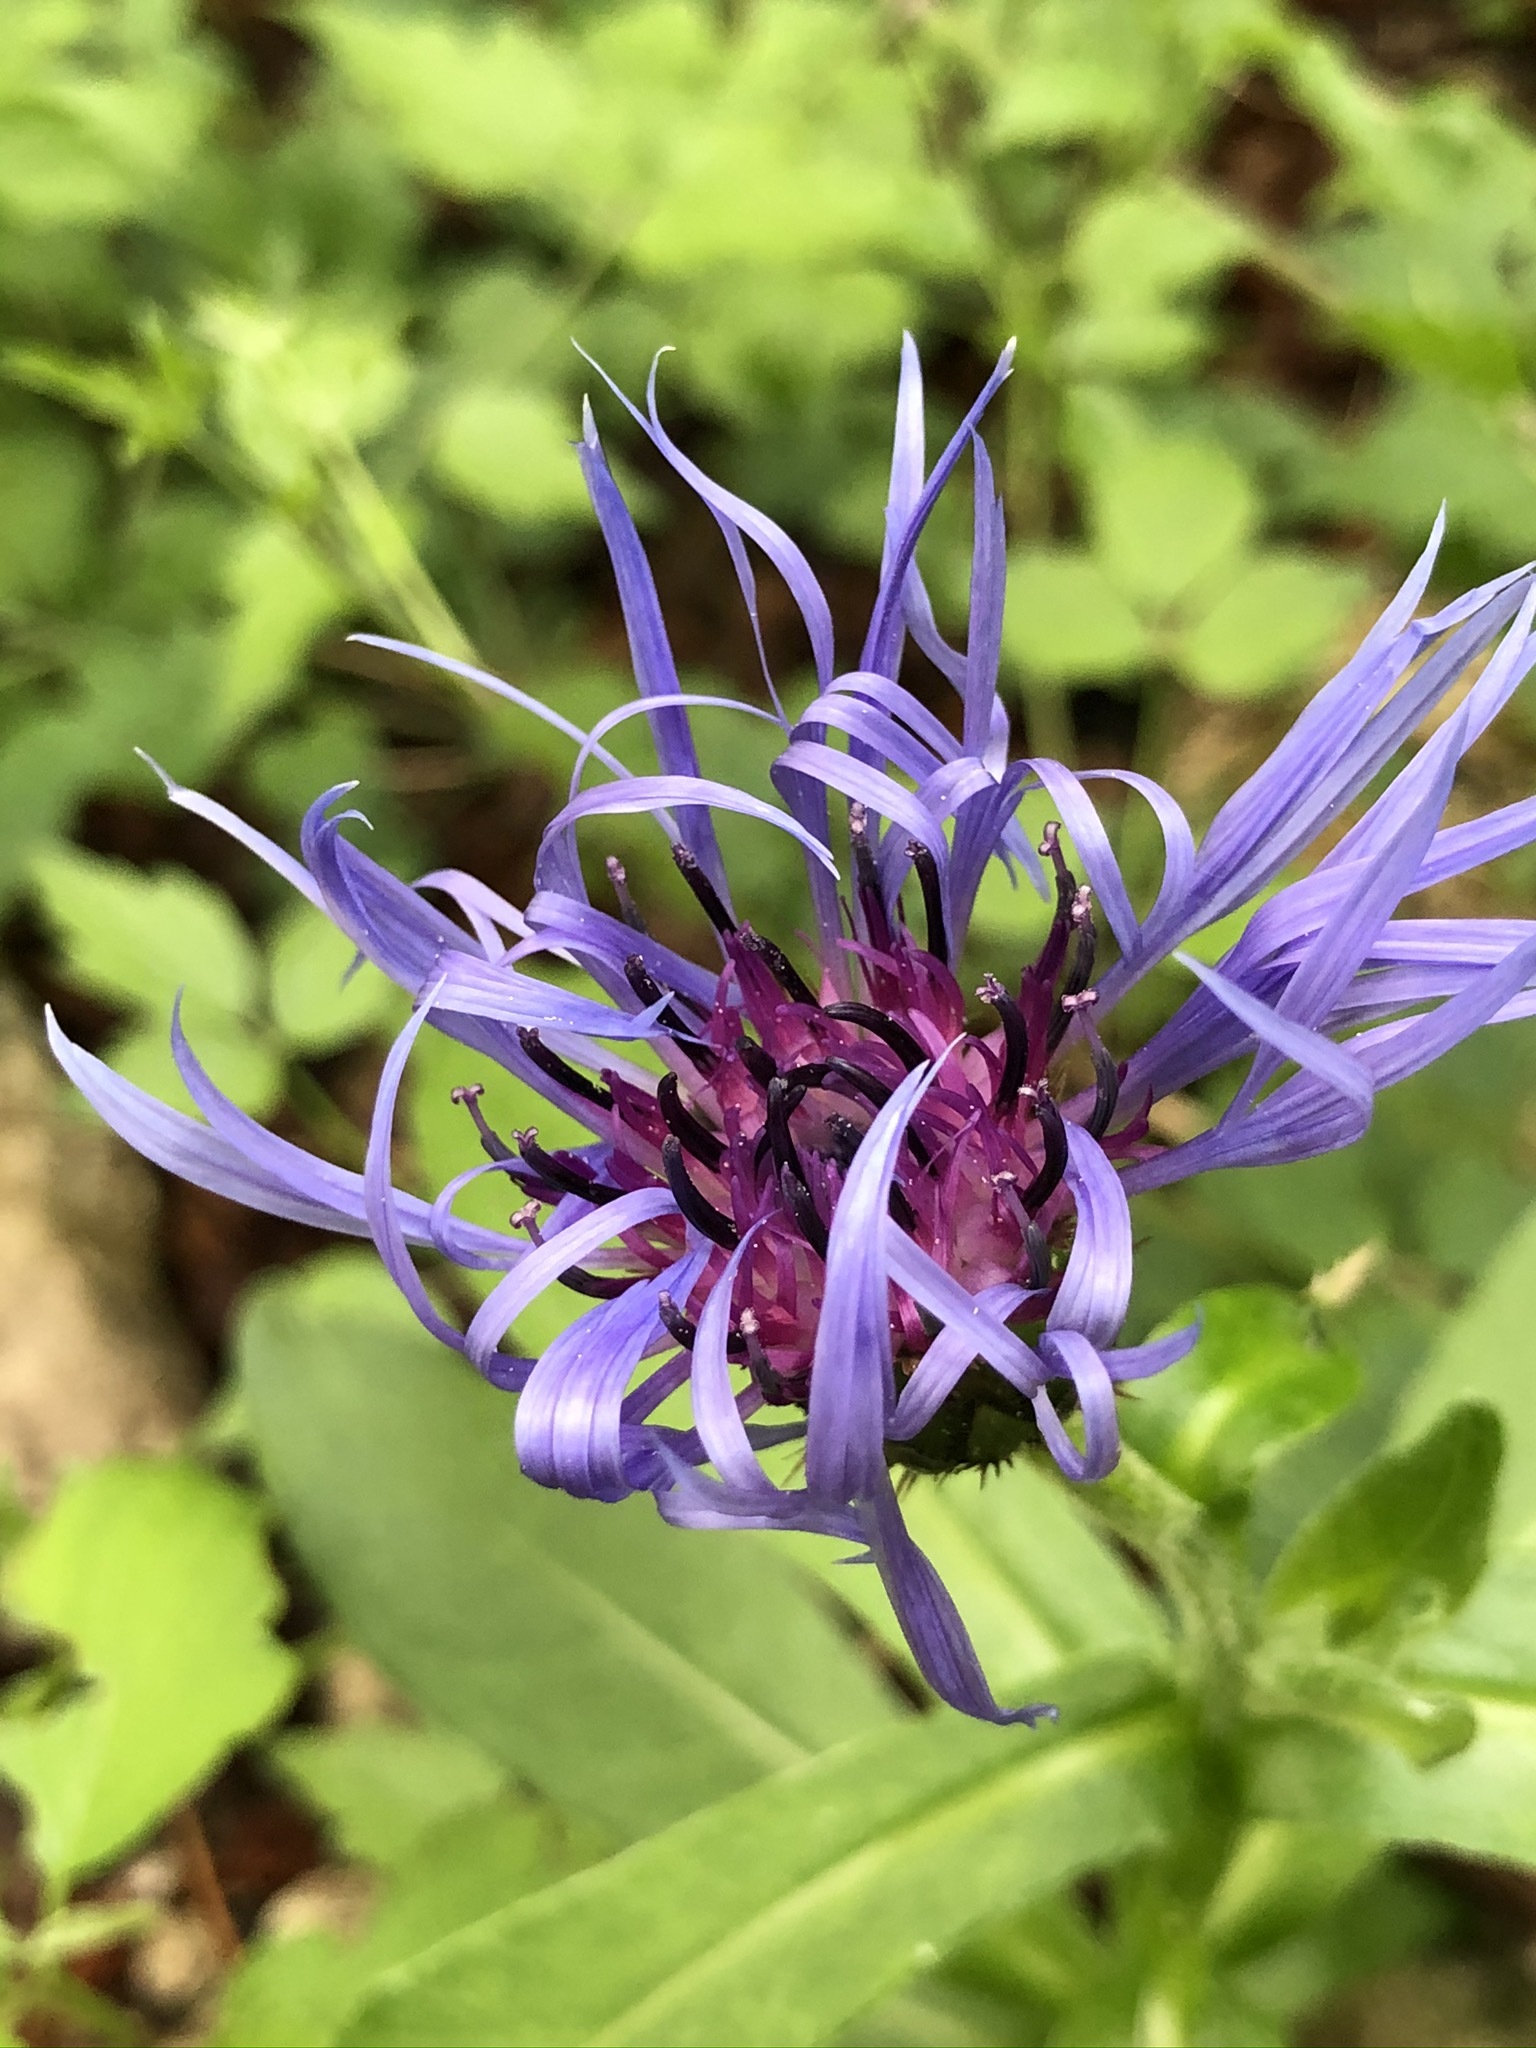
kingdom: Plantae
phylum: Tracheophyta
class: Magnoliopsida
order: Asterales
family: Asteraceae
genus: Centaurea
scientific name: Centaurea montana
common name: Perennial cornflower
